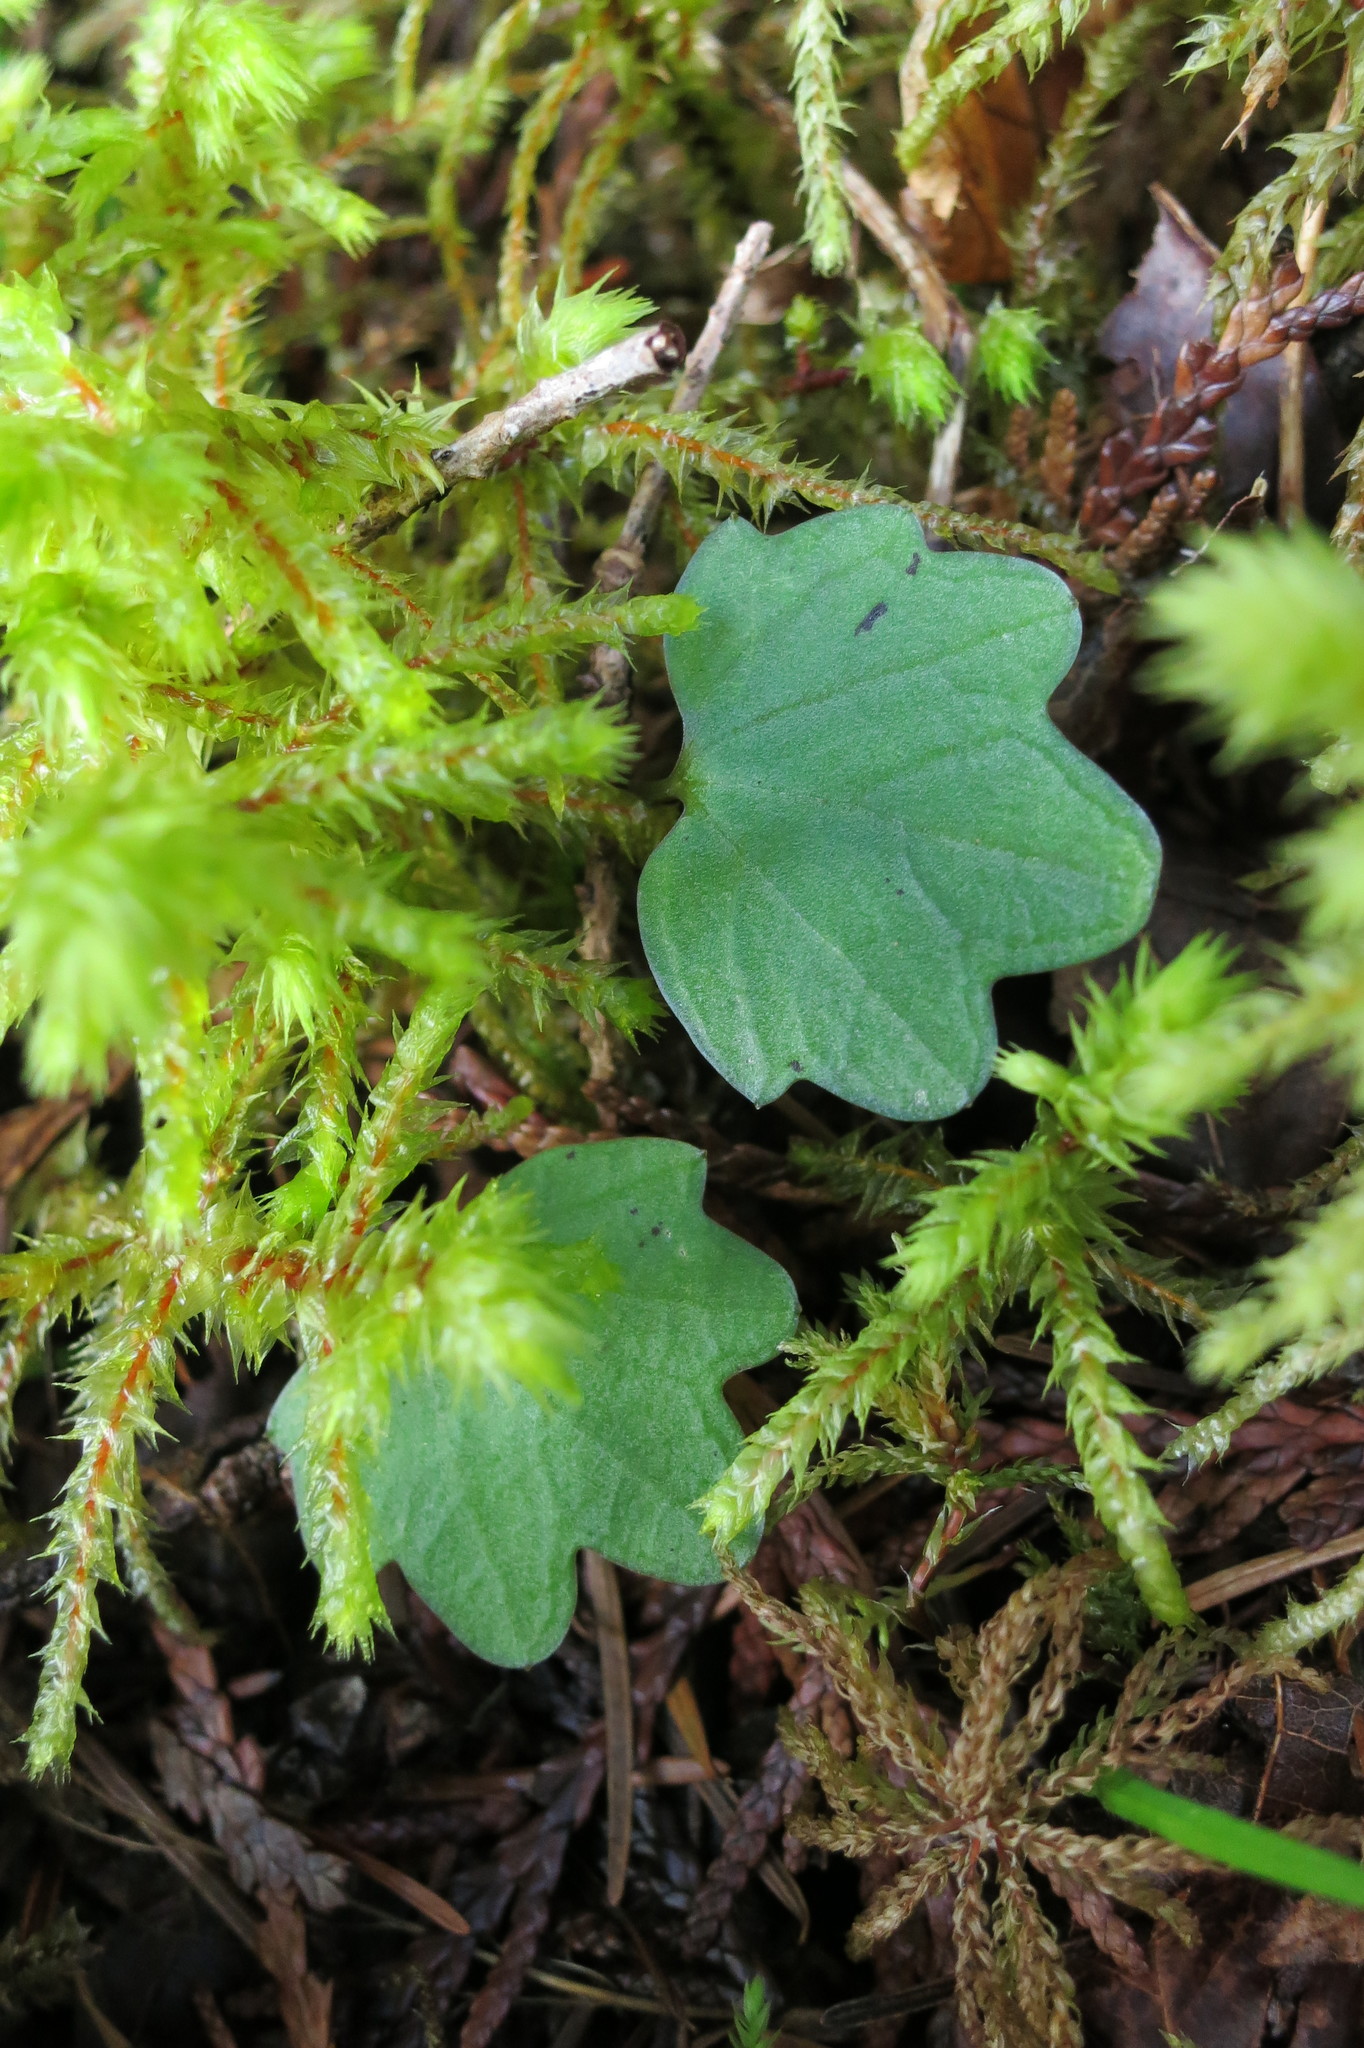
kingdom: Plantae
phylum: Tracheophyta
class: Magnoliopsida
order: Brassicales
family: Brassicaceae
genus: Cardamine
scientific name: Cardamine nuttallii
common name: Nuttall's toothwort
